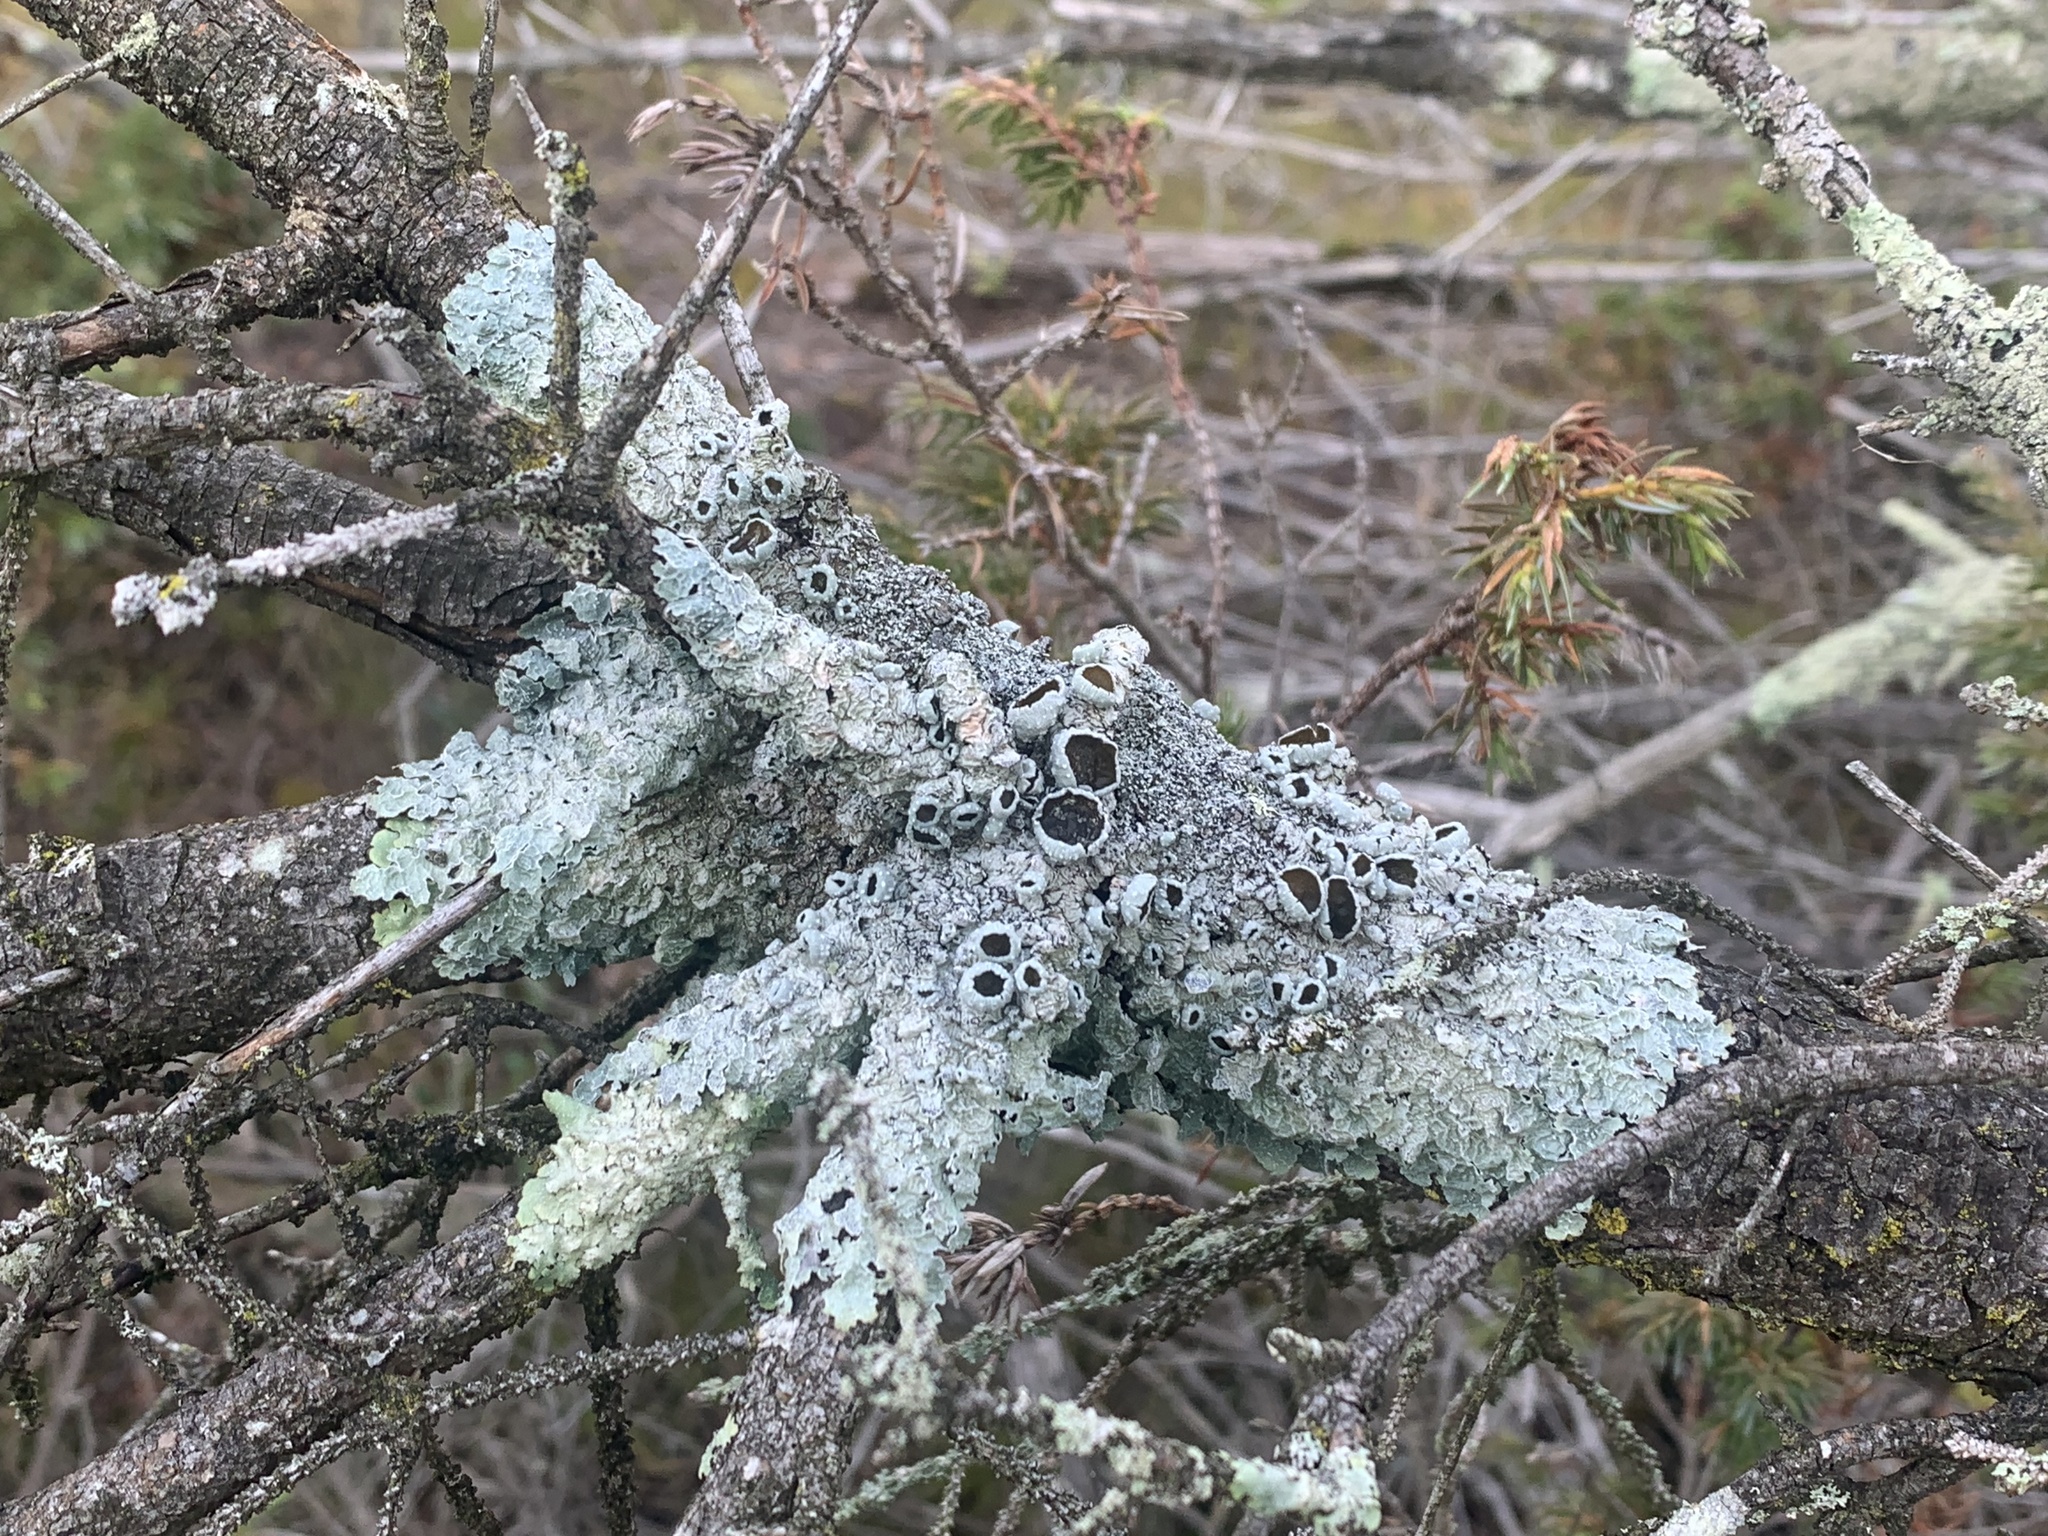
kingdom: Fungi
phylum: Ascomycota
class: Lecanoromycetes
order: Lecanorales
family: Parmeliaceae
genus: Punctelia
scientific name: Punctelia bolliana
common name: Eastern speckled shield lichen
